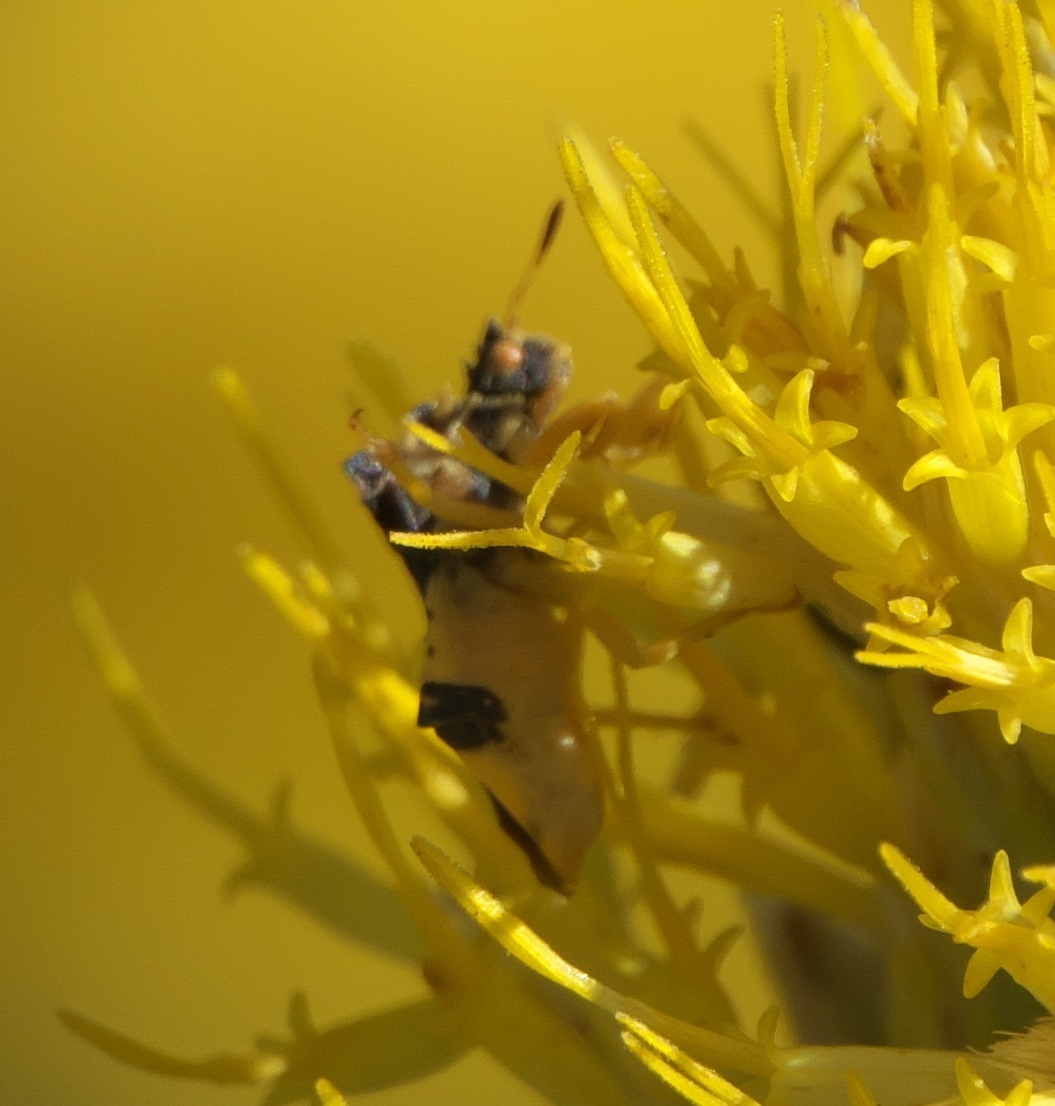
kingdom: Animalia
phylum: Arthropoda
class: Insecta
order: Hemiptera
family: Reduviidae
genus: Phymata
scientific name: Phymata americana
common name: Jagged ambush bug
